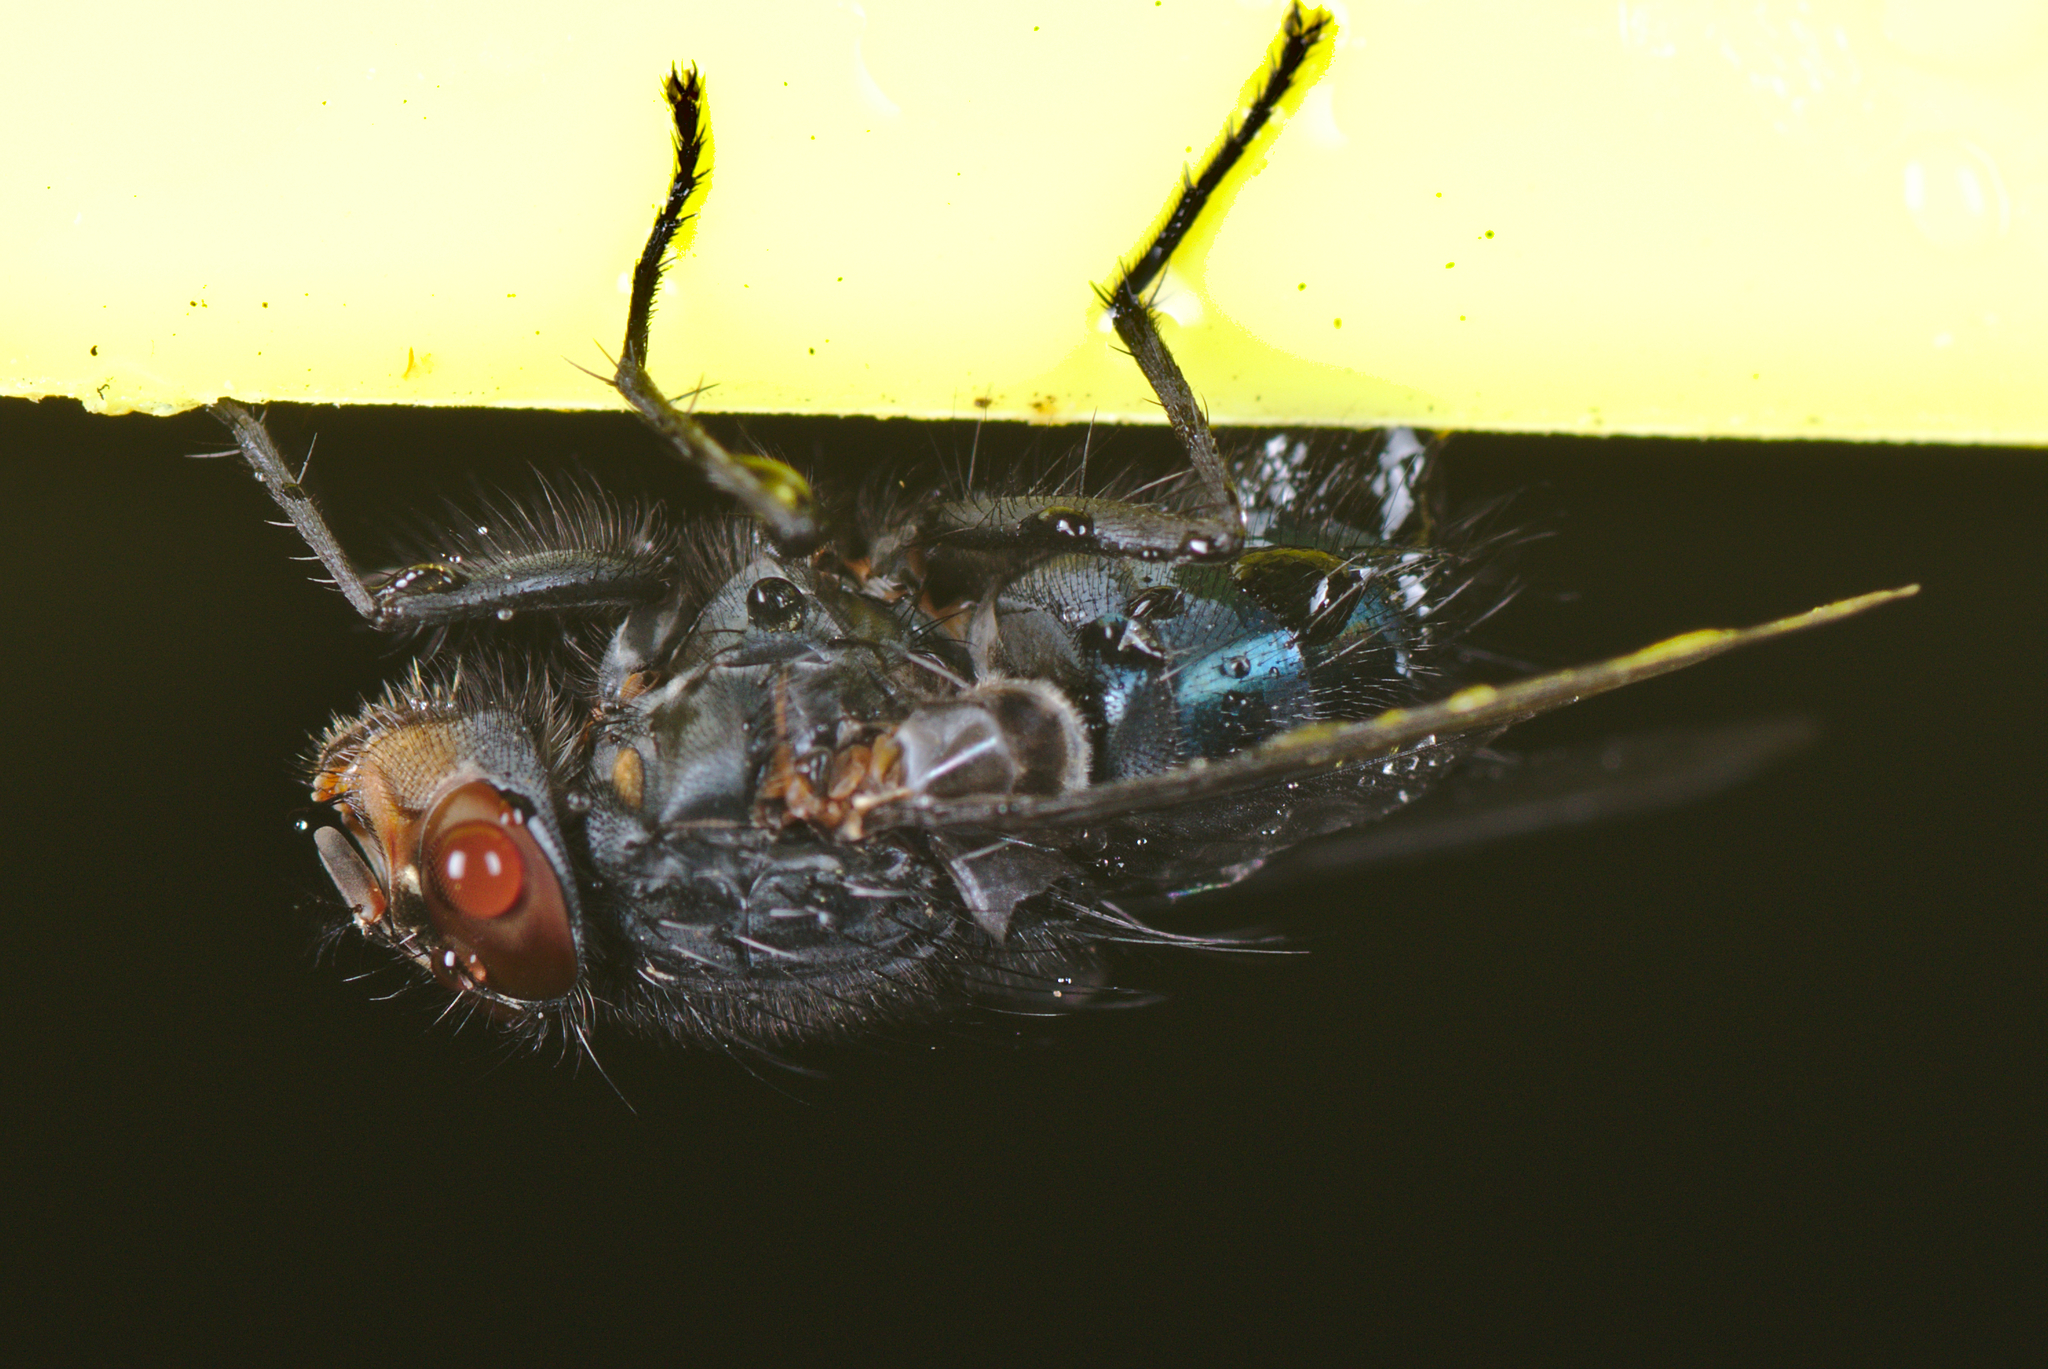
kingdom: Animalia
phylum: Arthropoda
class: Insecta
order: Diptera
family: Calliphoridae
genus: Calliphora
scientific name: Calliphora vicina
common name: Common blow flie
